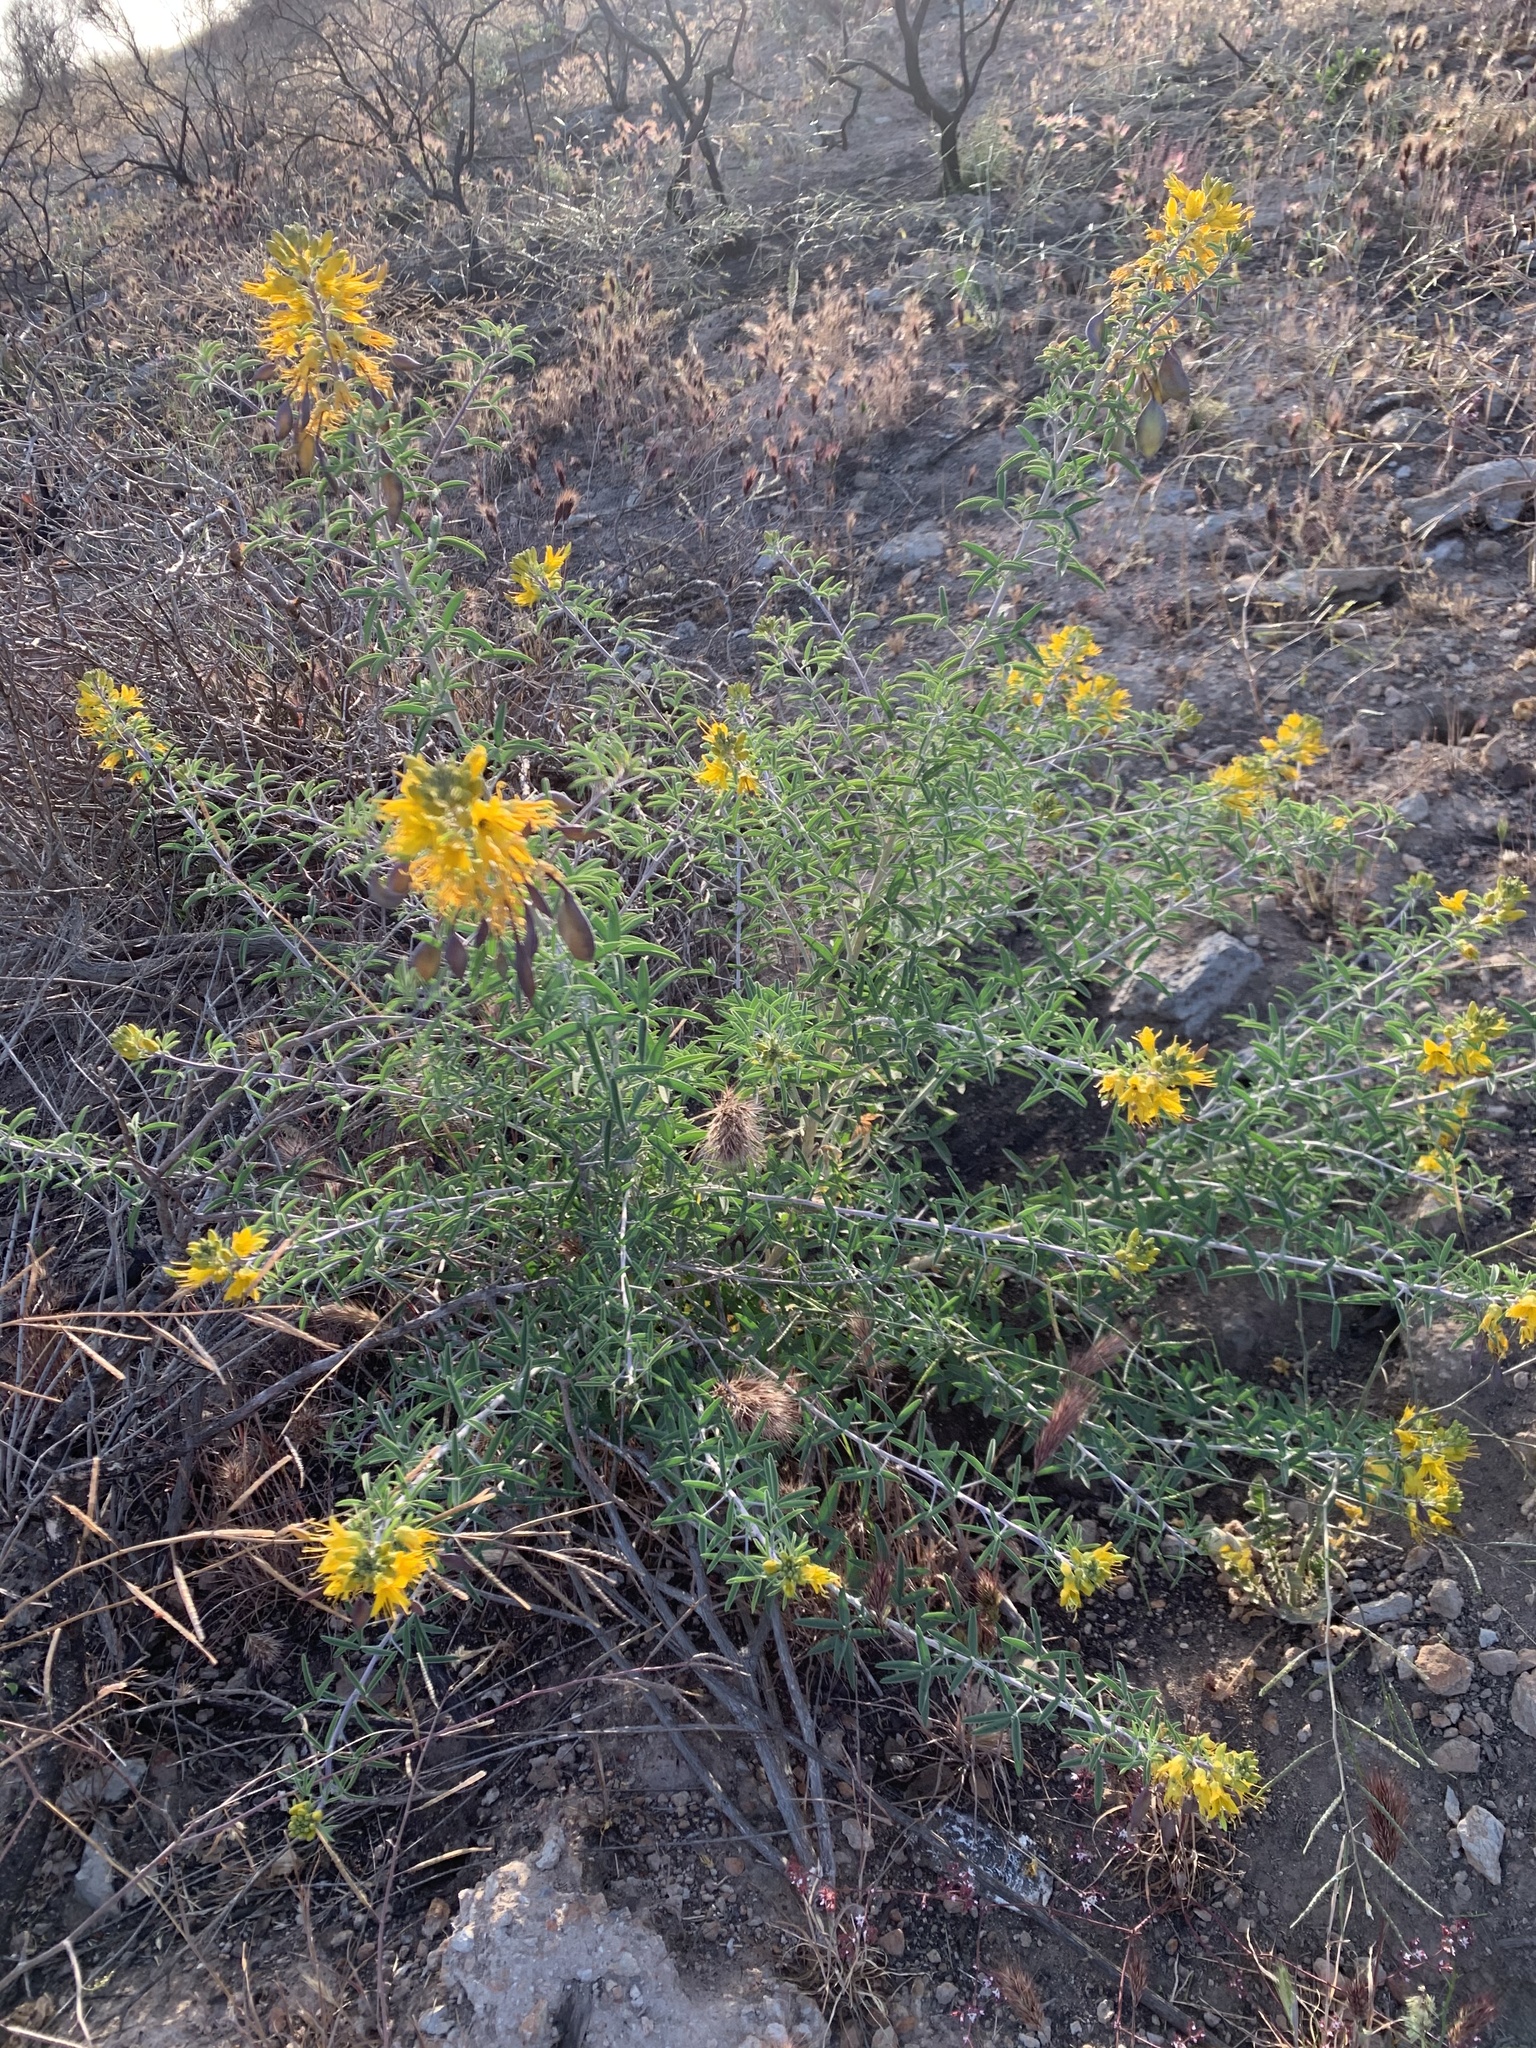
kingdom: Plantae
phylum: Tracheophyta
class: Magnoliopsida
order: Brassicales
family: Cleomaceae
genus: Cleomella
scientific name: Cleomella arborea
